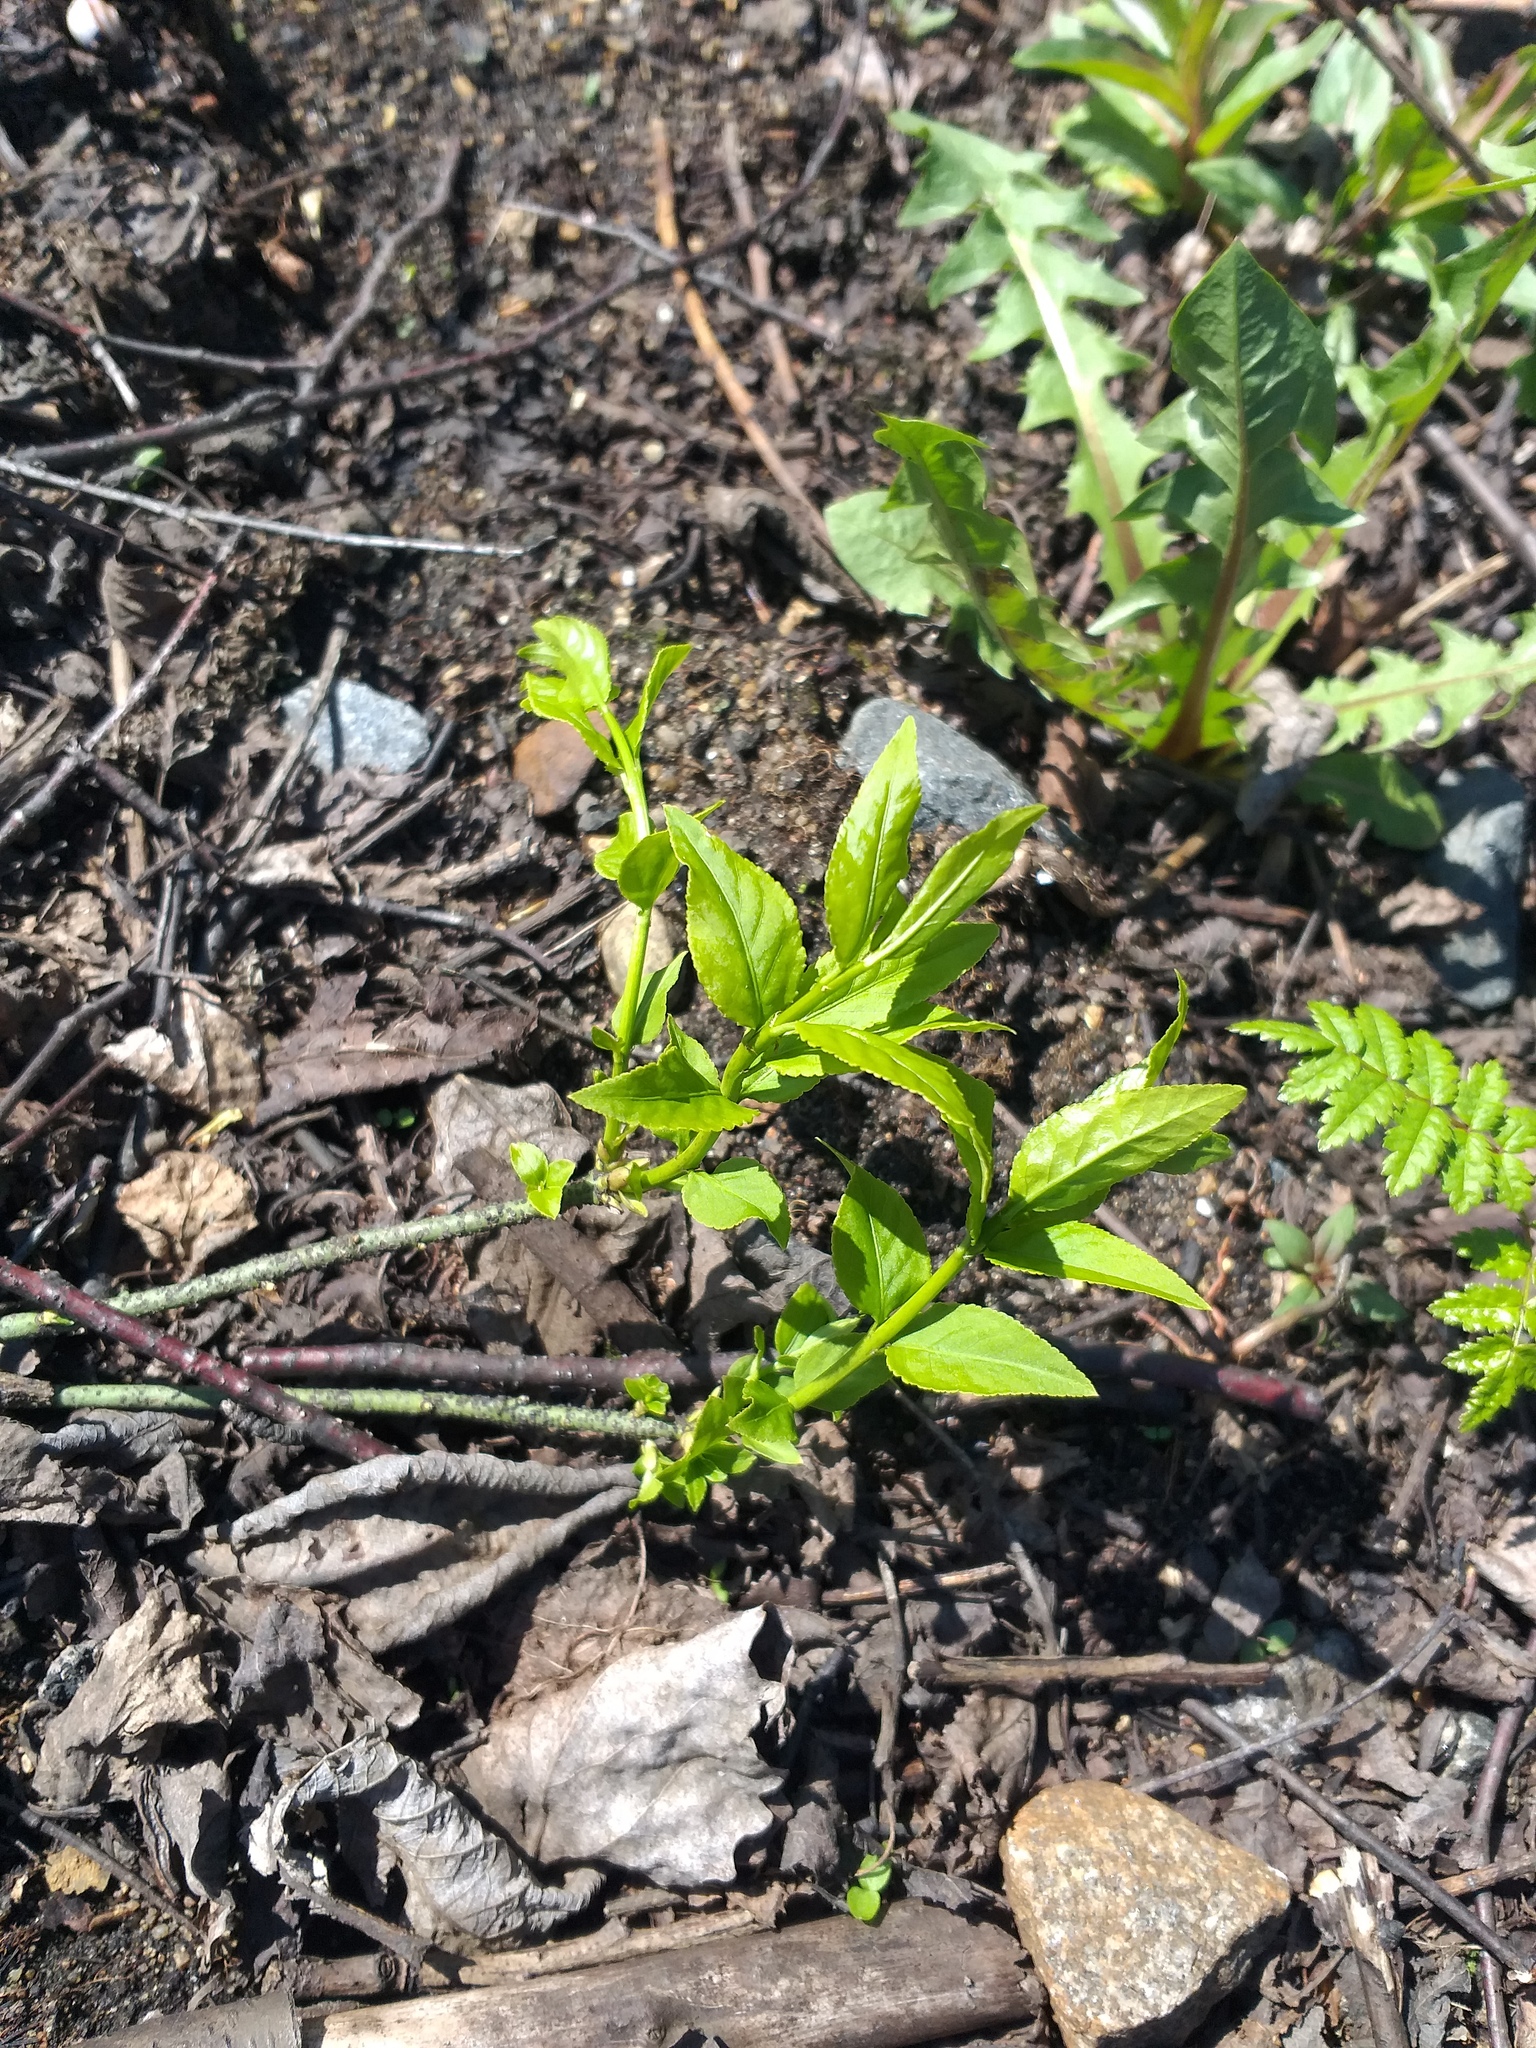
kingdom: Plantae
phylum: Tracheophyta
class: Magnoliopsida
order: Celastrales
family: Celastraceae
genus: Euonymus
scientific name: Euonymus verrucosus
